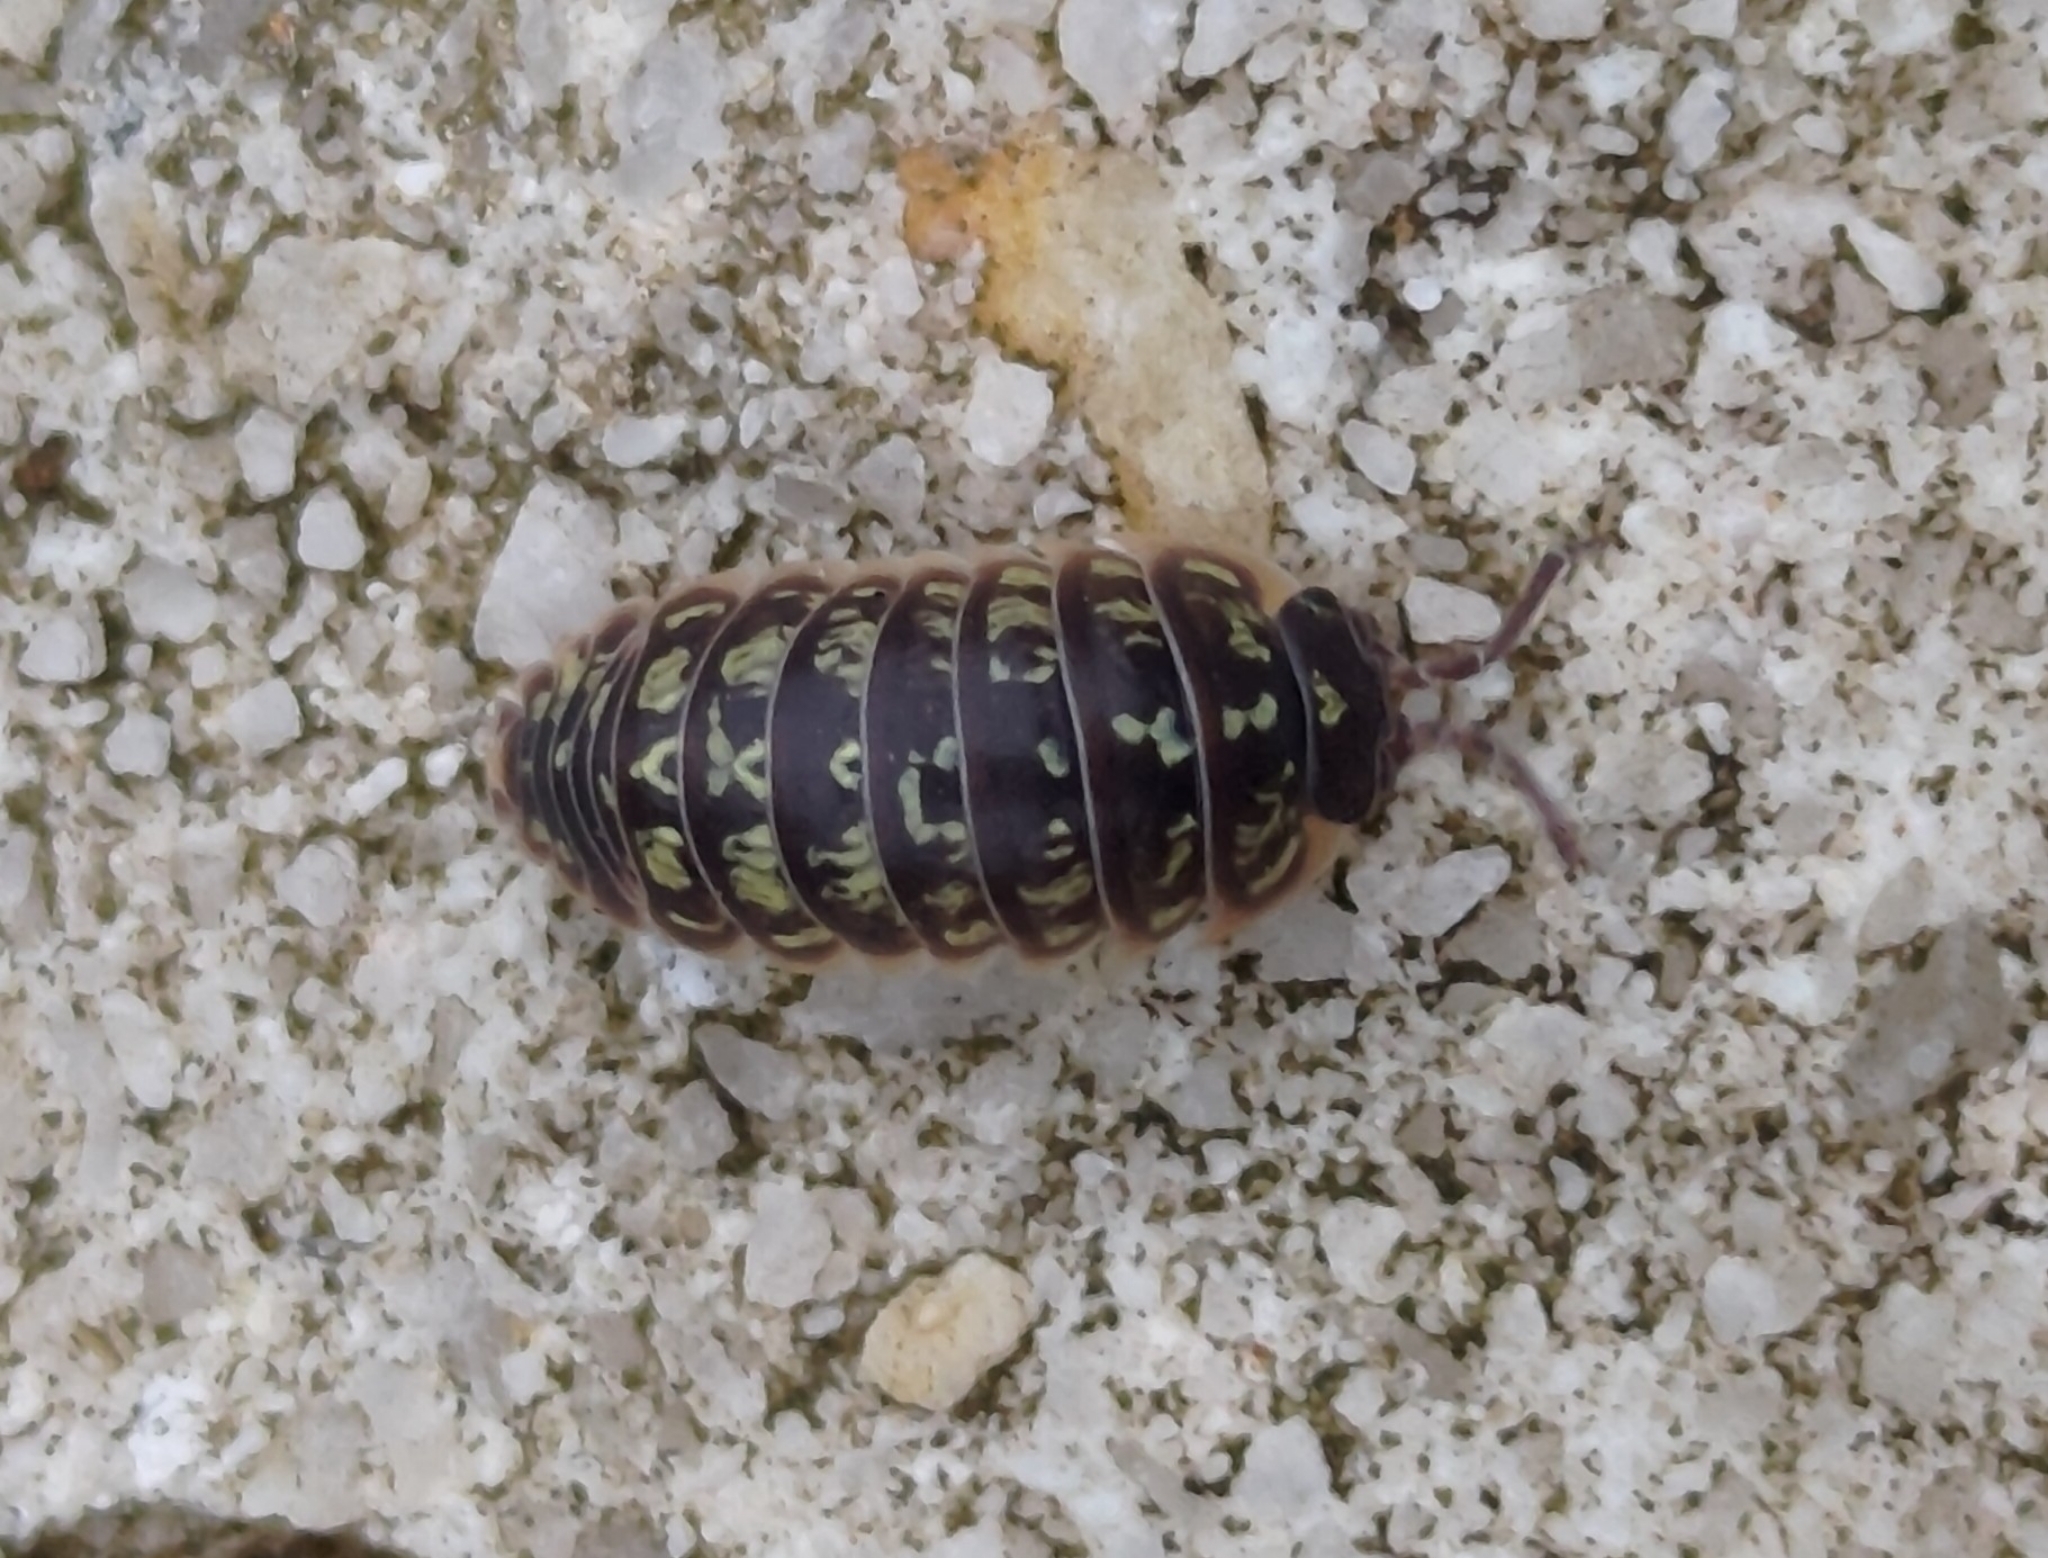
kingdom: Animalia
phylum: Arthropoda
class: Malacostraca
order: Isopoda
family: Armadillidiidae
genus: Armadillidium
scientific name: Armadillidium versicolor
